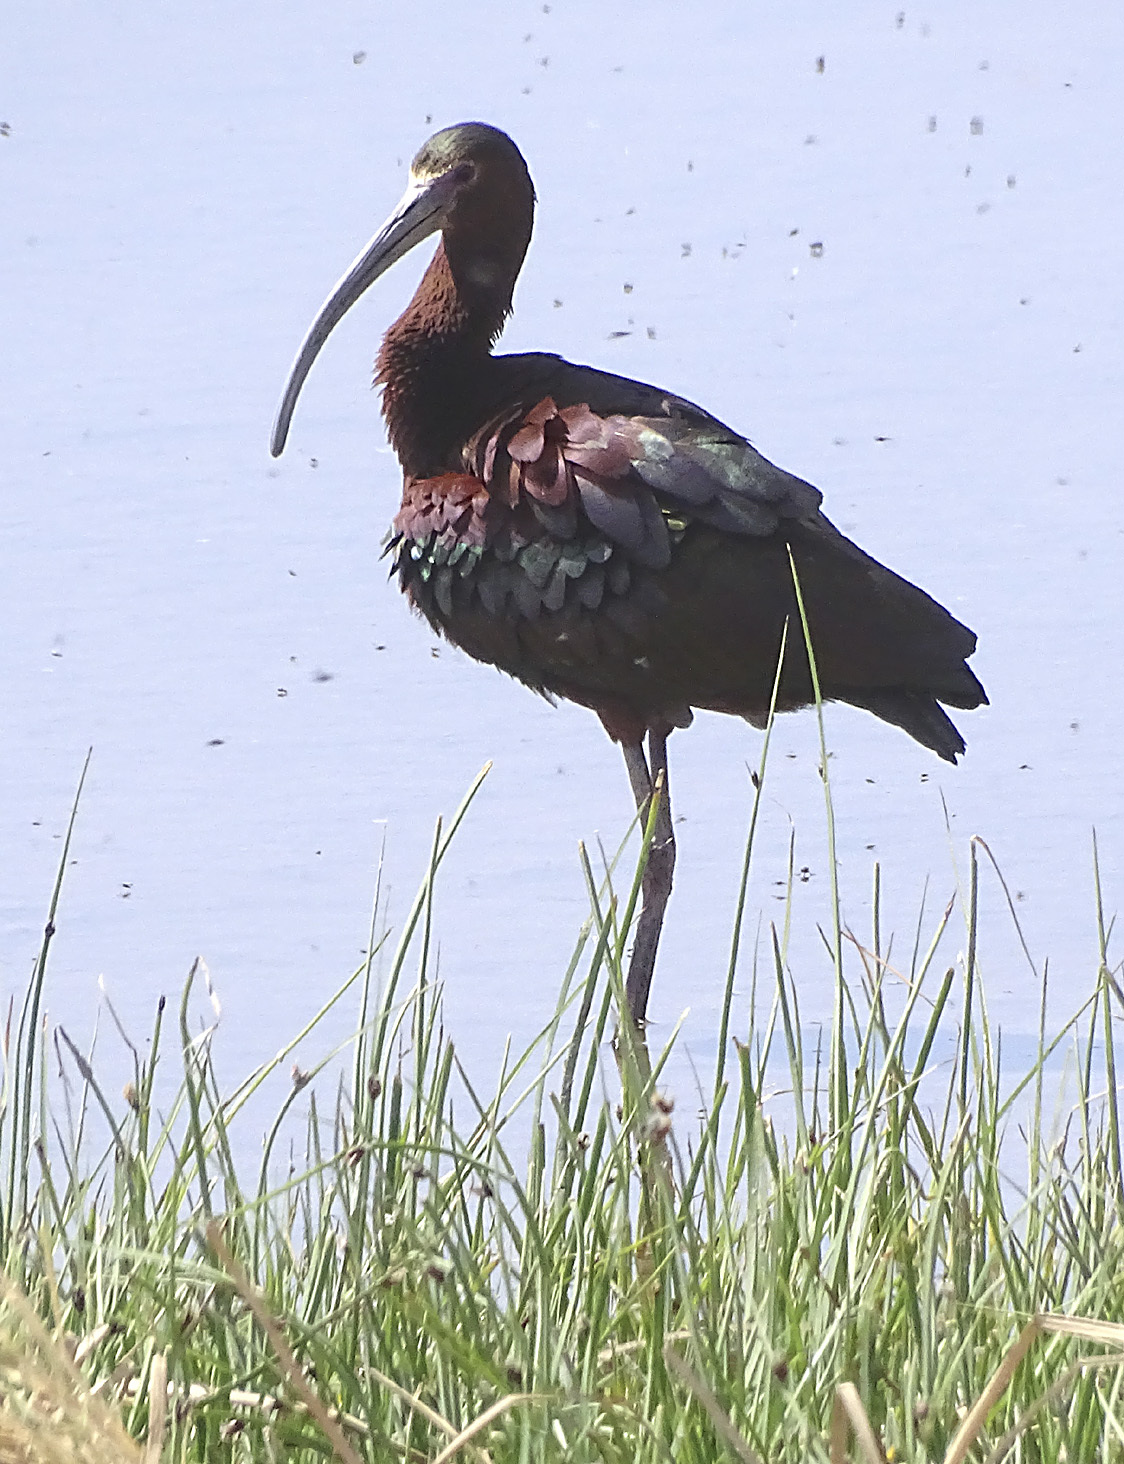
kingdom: Animalia
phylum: Chordata
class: Aves
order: Pelecaniformes
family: Threskiornithidae
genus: Plegadis
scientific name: Plegadis chihi
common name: White-faced ibis
